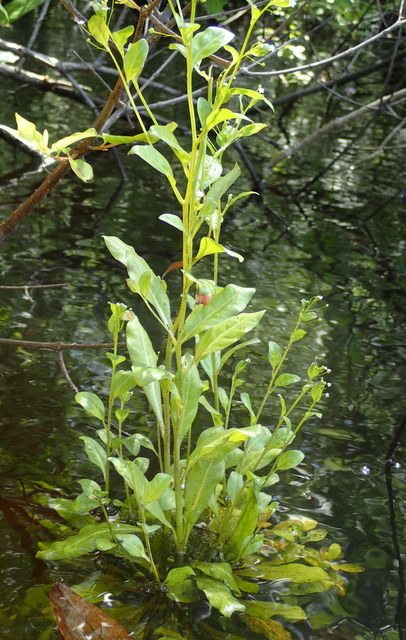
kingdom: Plantae
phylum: Tracheophyta
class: Magnoliopsida
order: Ericales
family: Primulaceae
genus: Samolus
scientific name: Samolus parviflorus
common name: False water pimpernel
